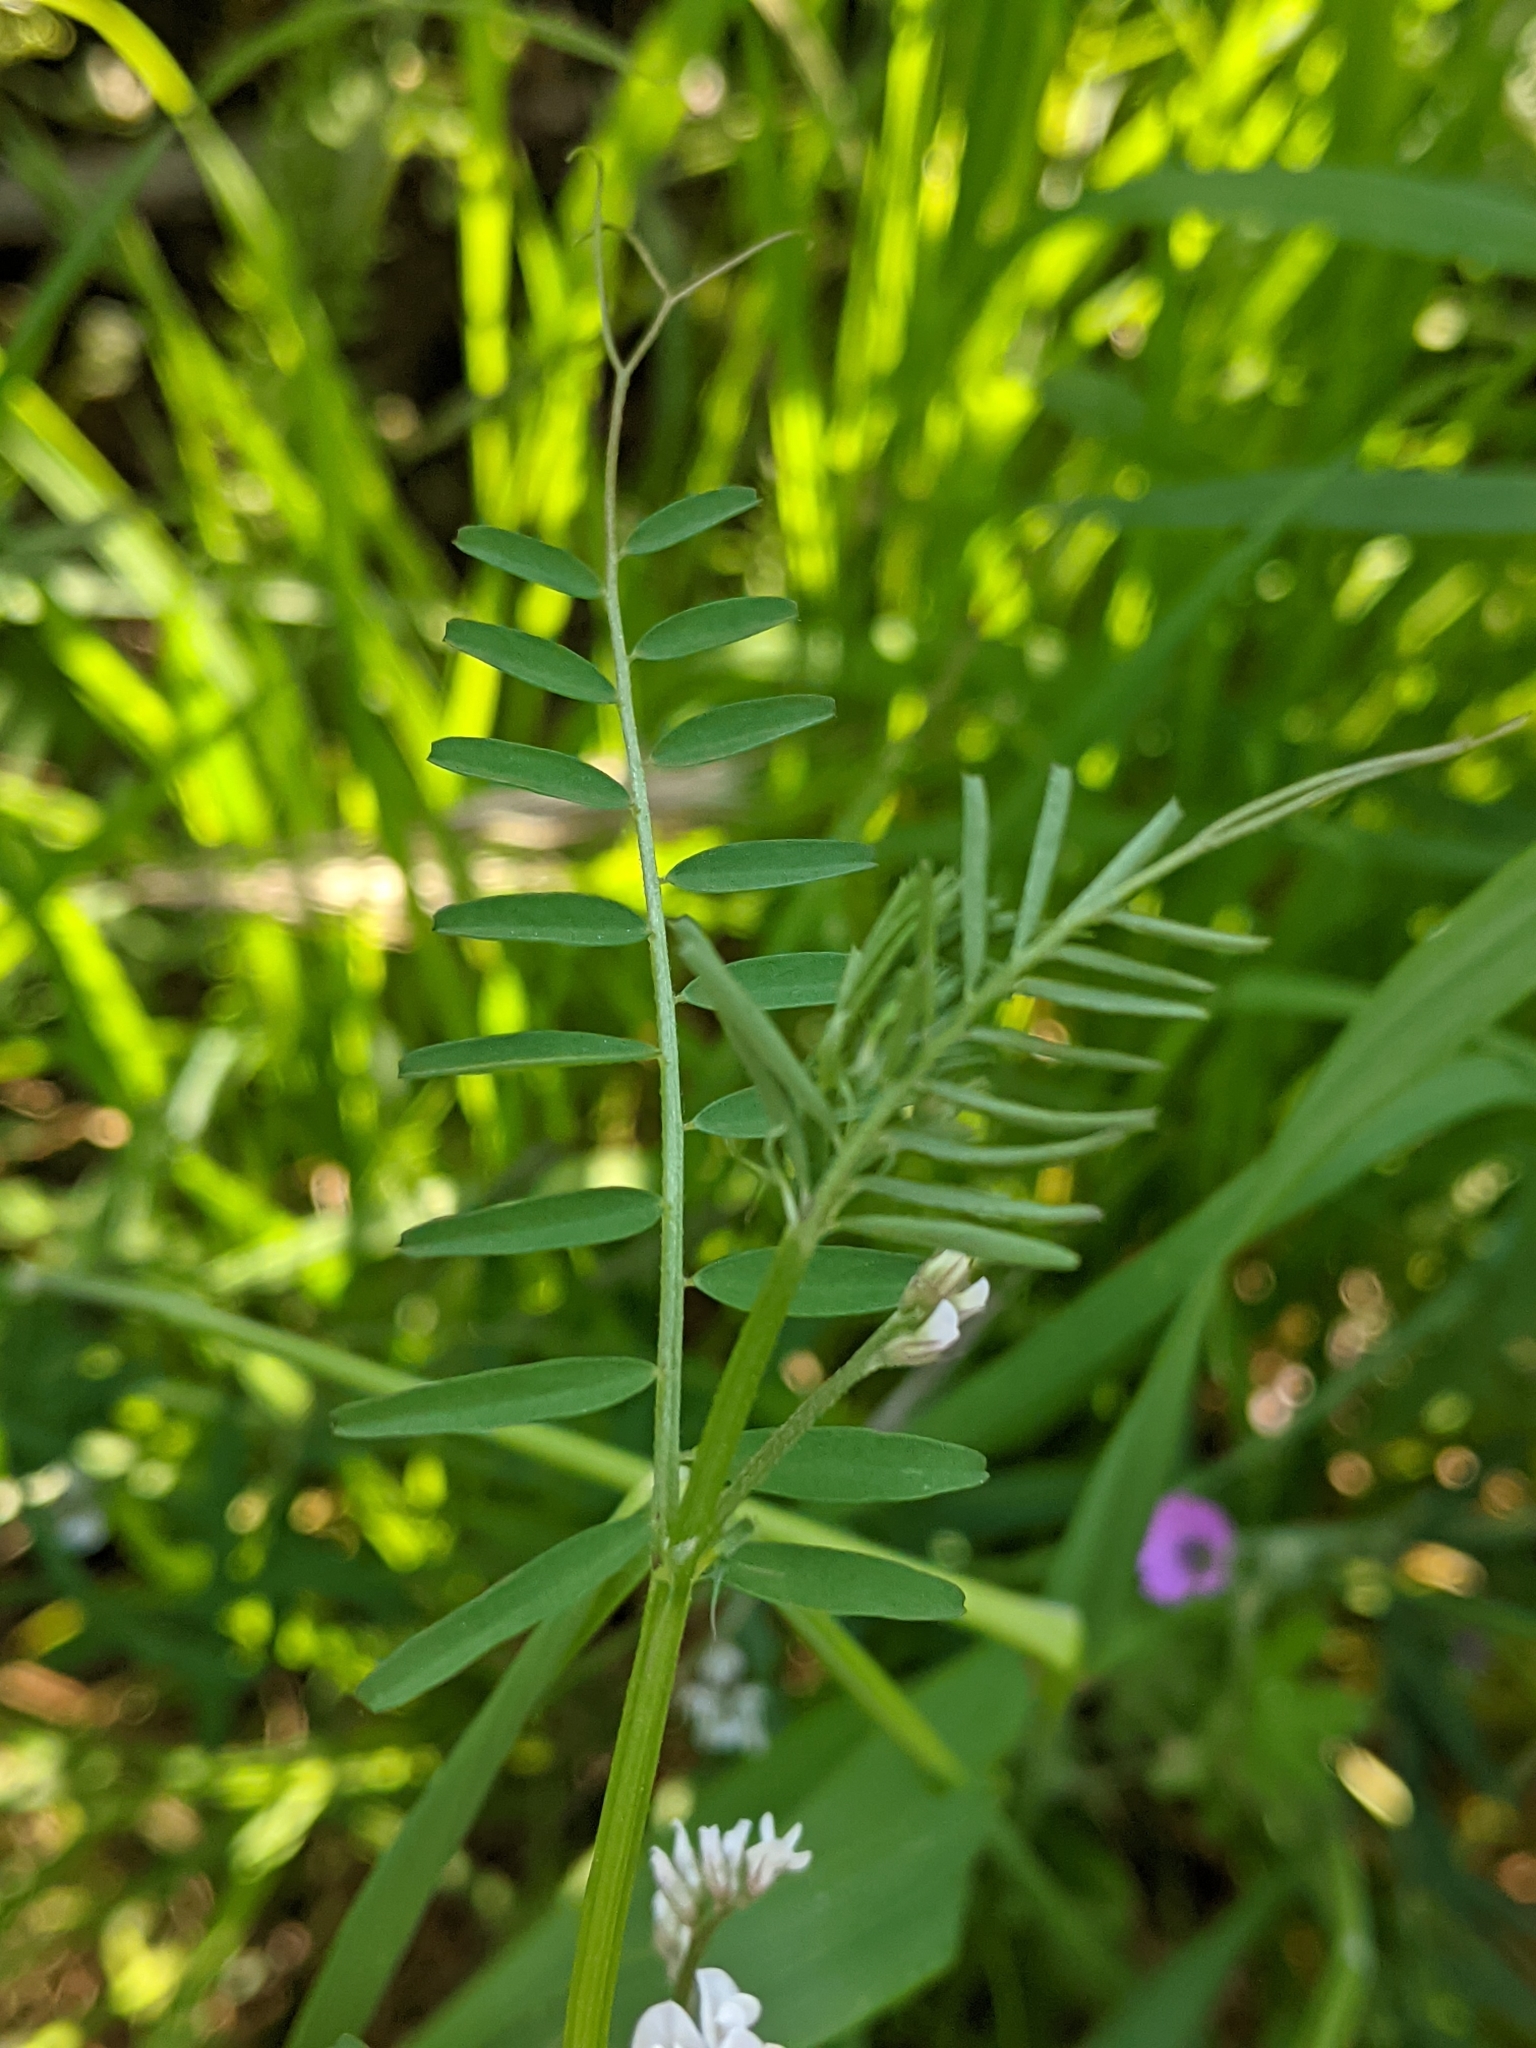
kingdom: Plantae
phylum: Tracheophyta
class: Magnoliopsida
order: Fabales
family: Fabaceae
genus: Vicia
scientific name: Vicia hirsuta
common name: Tiny vetch
